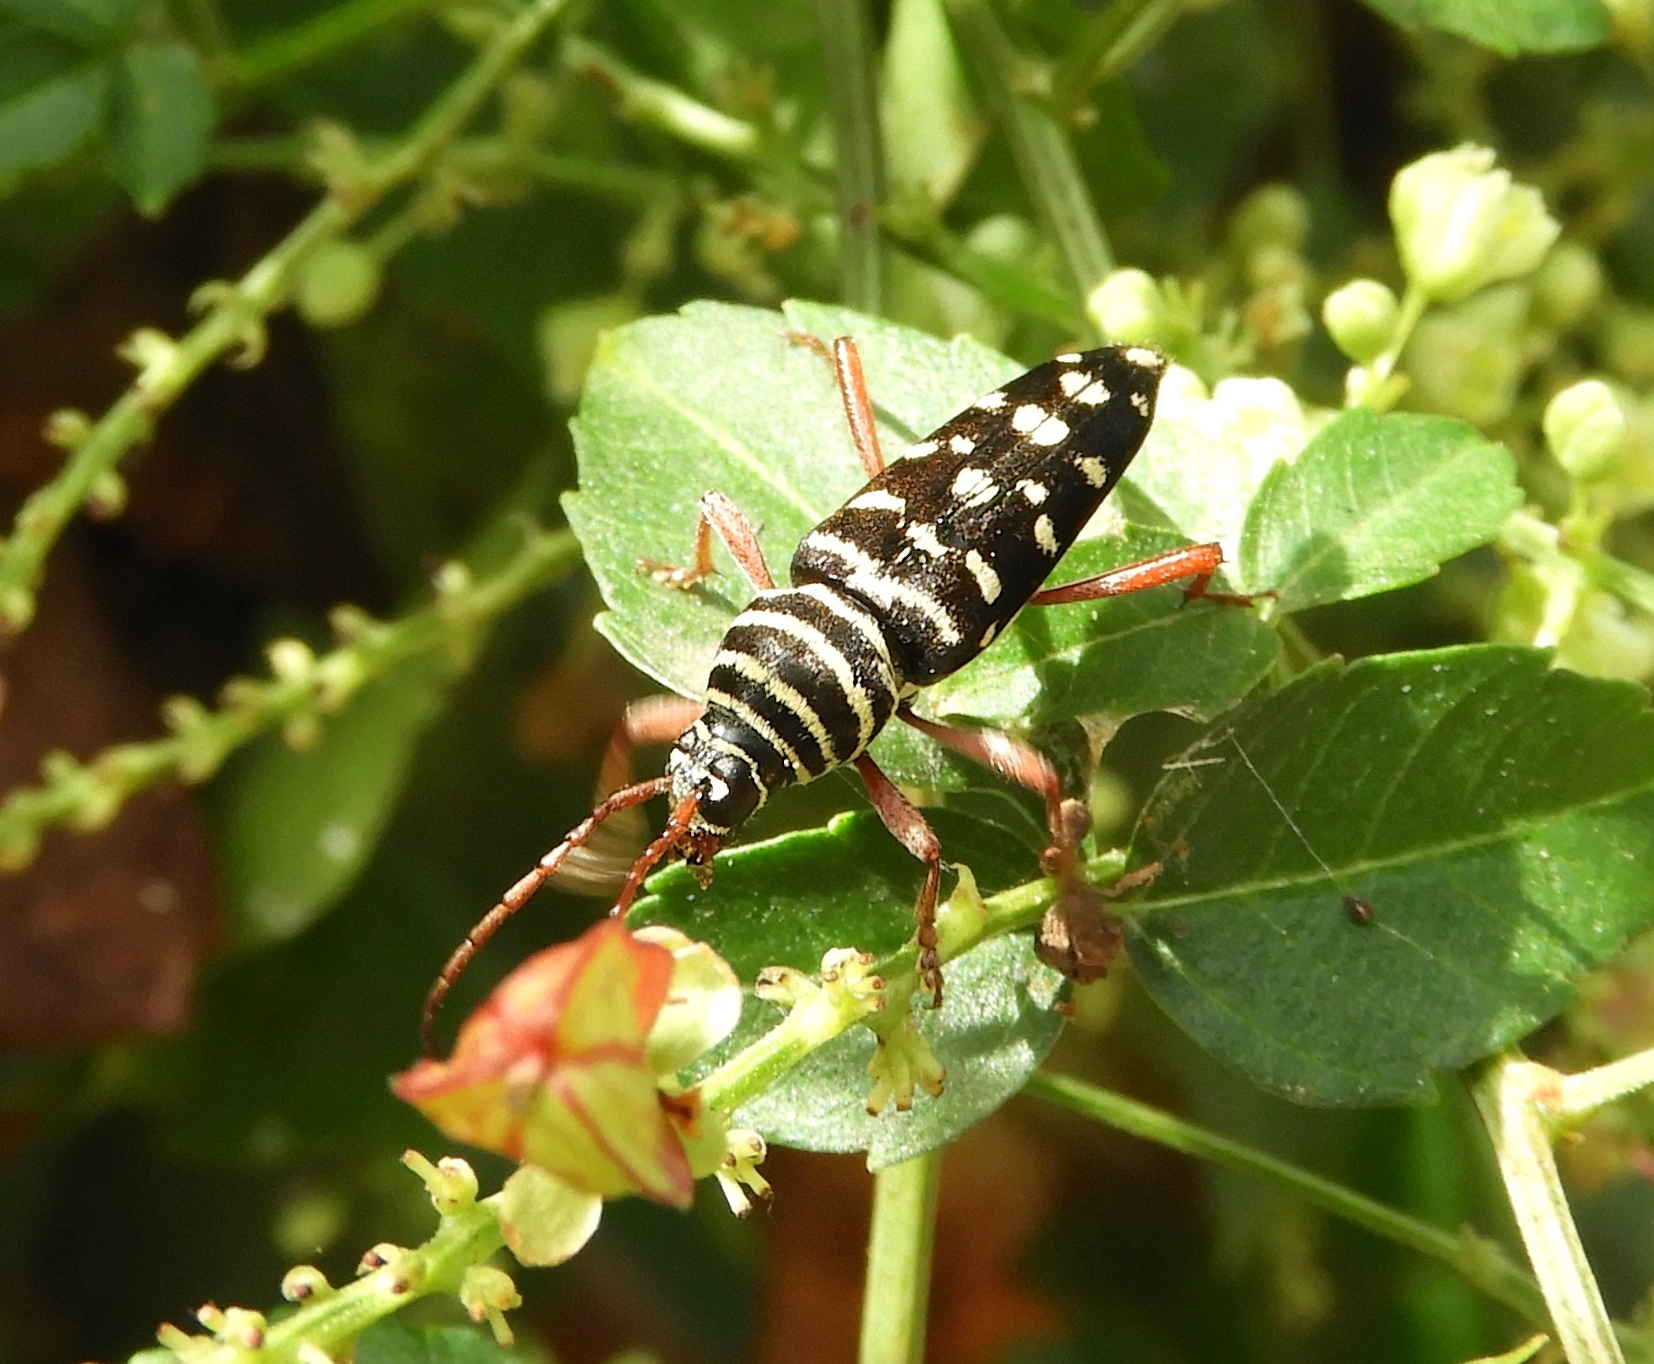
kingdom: Animalia
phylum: Arthropoda
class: Insecta
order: Coleoptera
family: Cerambycidae
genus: Placosternus
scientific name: Placosternus difficilis
